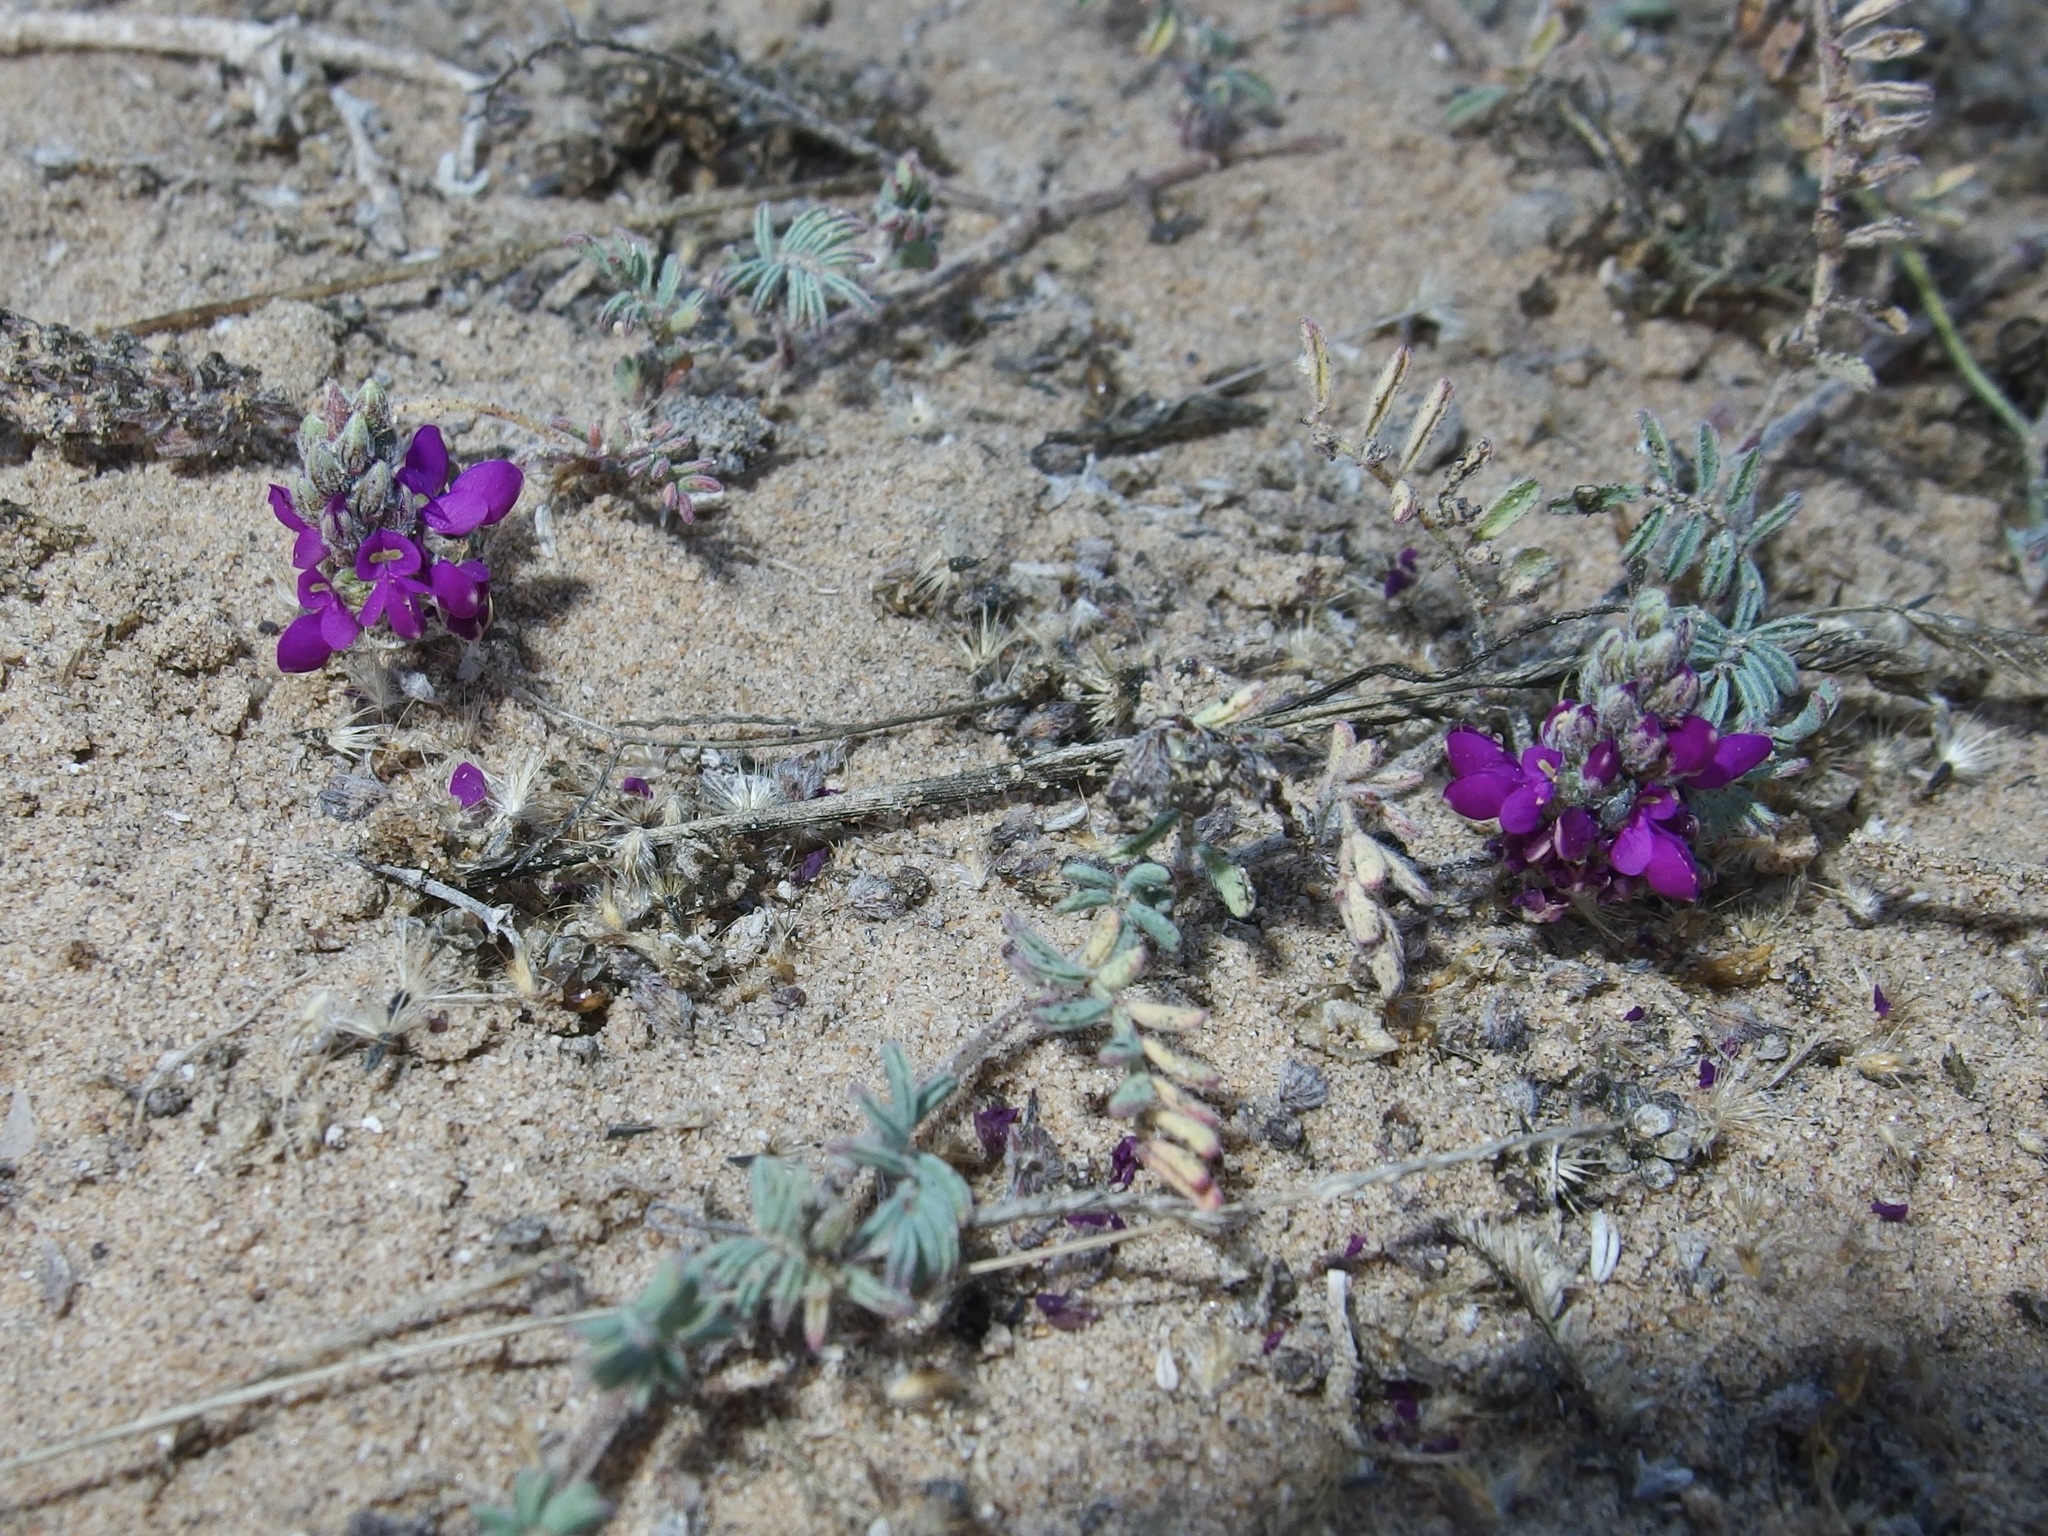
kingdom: Plantae
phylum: Tracheophyta
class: Magnoliopsida
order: Fabales
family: Fabaceae
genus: Marina
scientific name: Marina peninsularis
